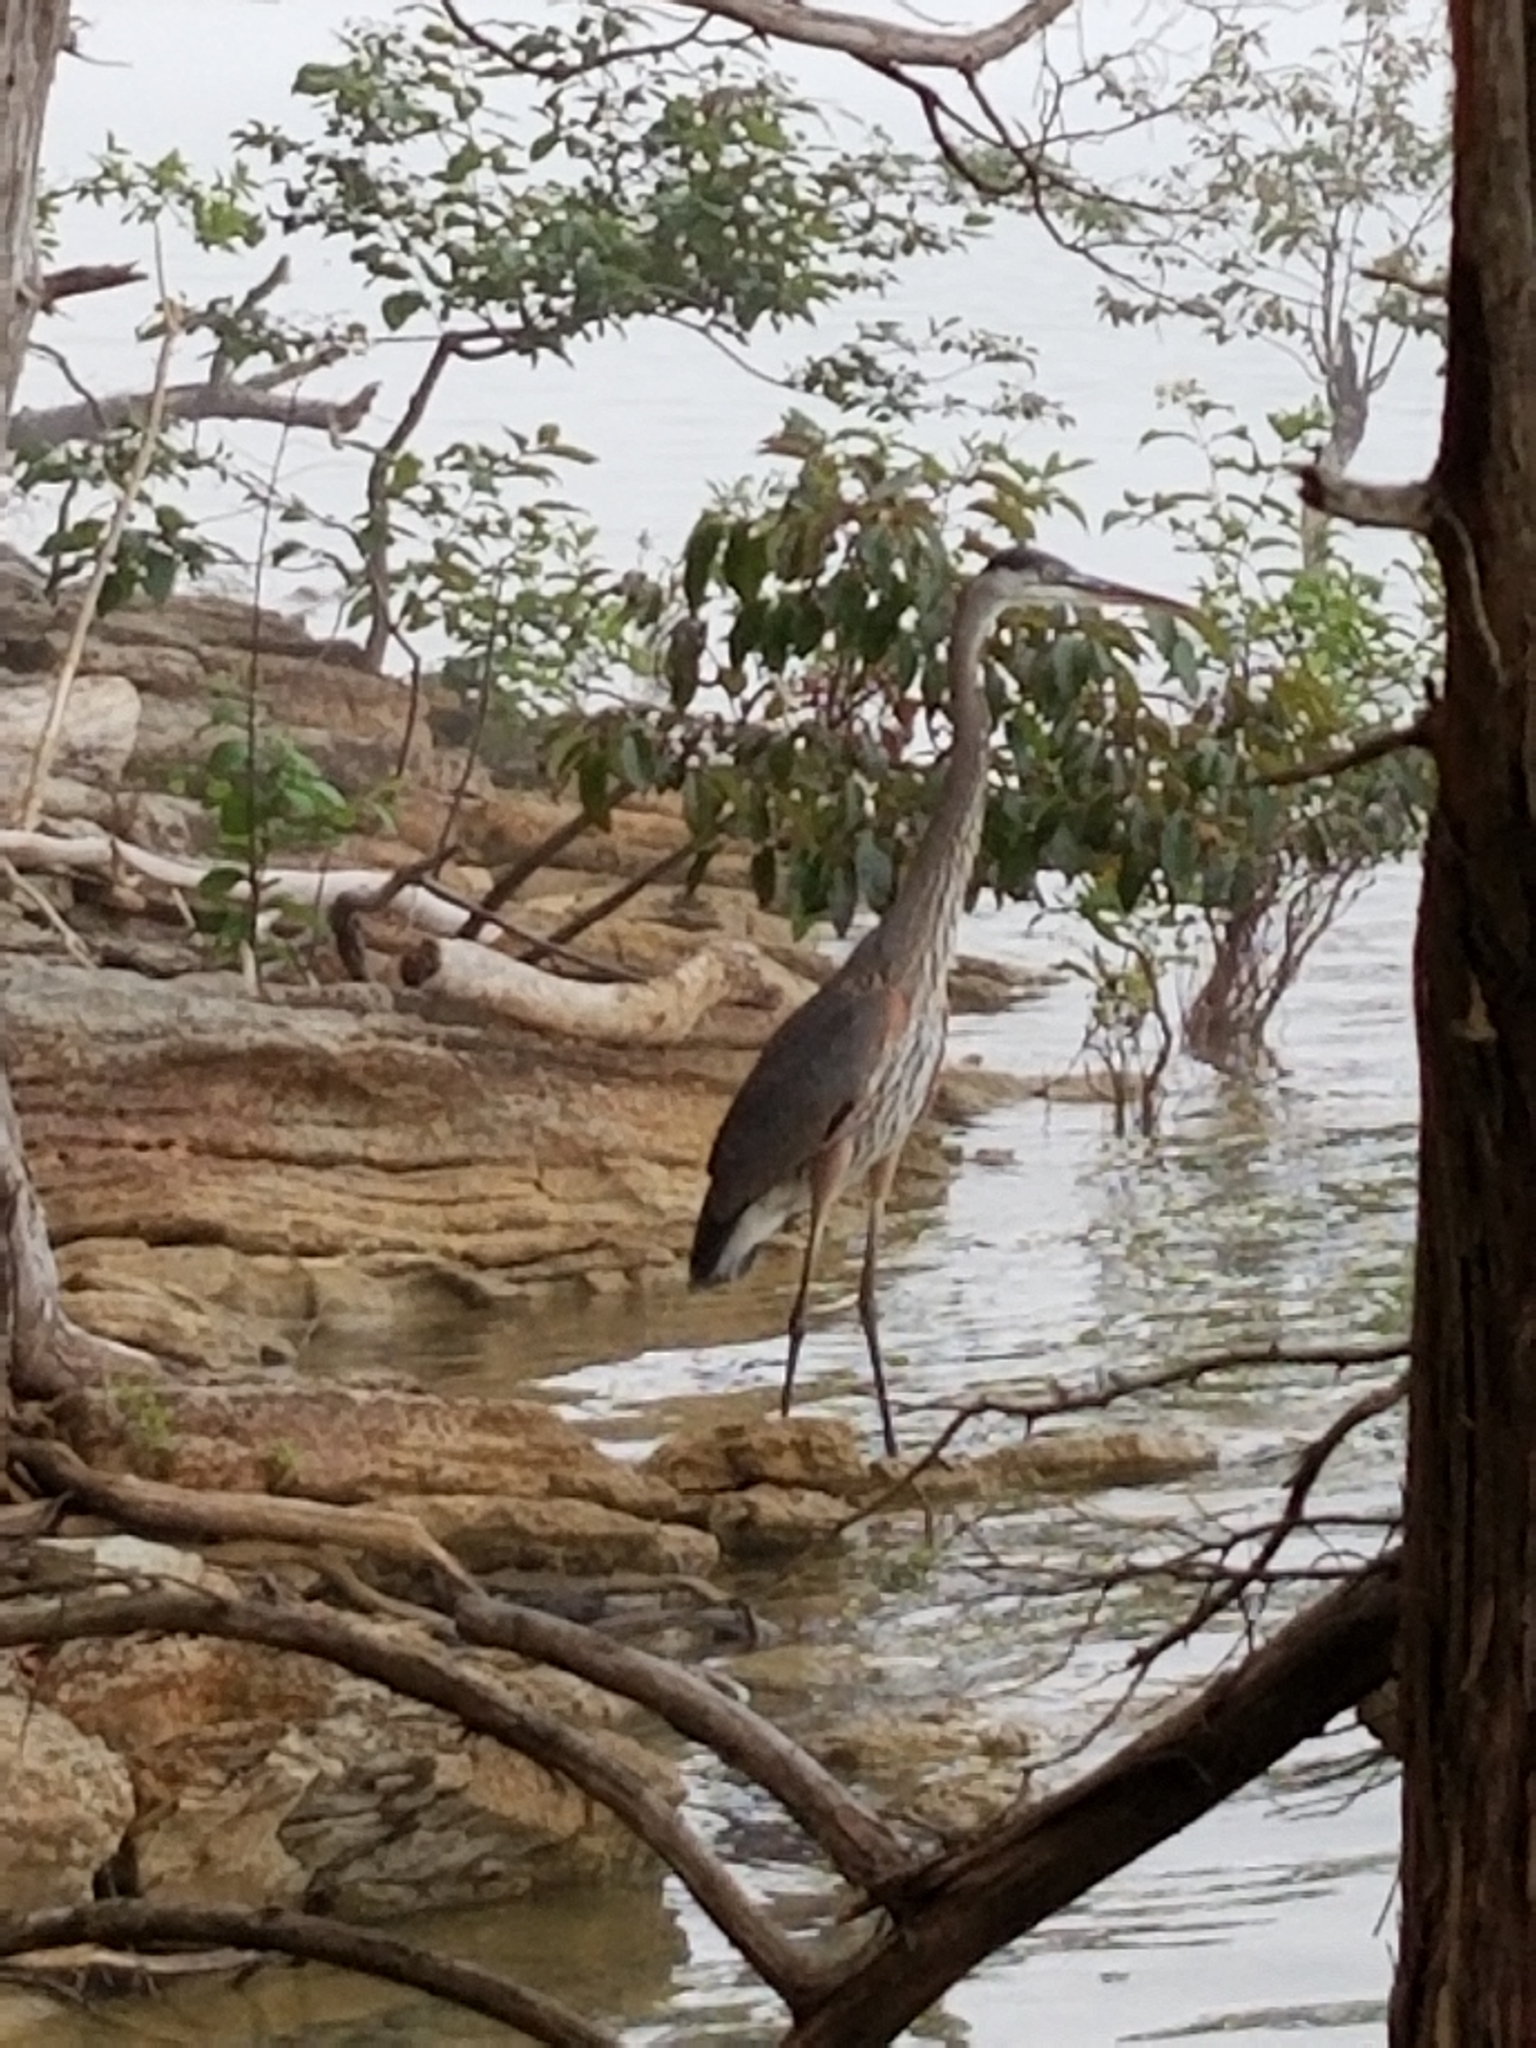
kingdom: Animalia
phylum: Chordata
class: Aves
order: Pelecaniformes
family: Ardeidae
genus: Ardea
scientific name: Ardea herodias
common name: Great blue heron
